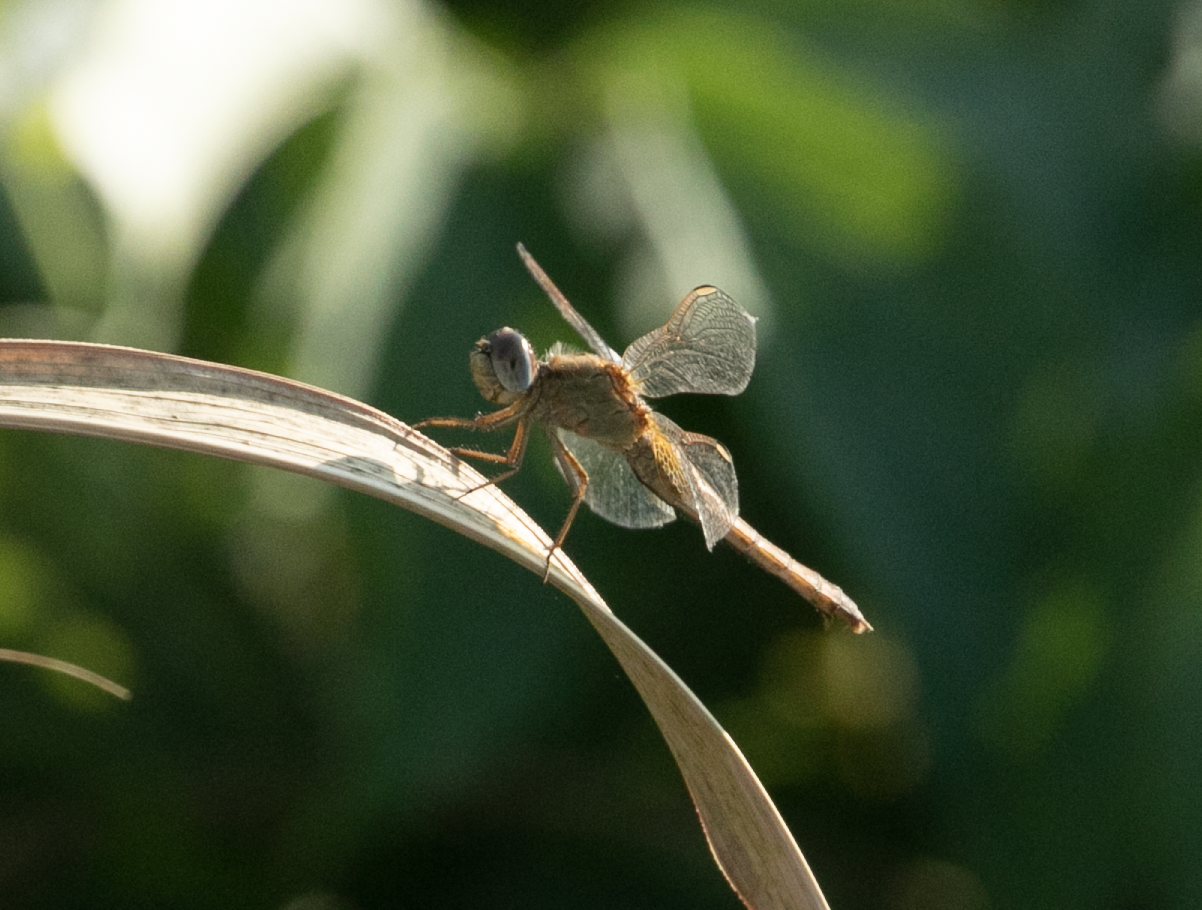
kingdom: Animalia
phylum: Arthropoda
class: Insecta
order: Odonata
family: Libellulidae
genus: Crocothemis
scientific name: Crocothemis erythraea
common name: Scarlet dragonfly
